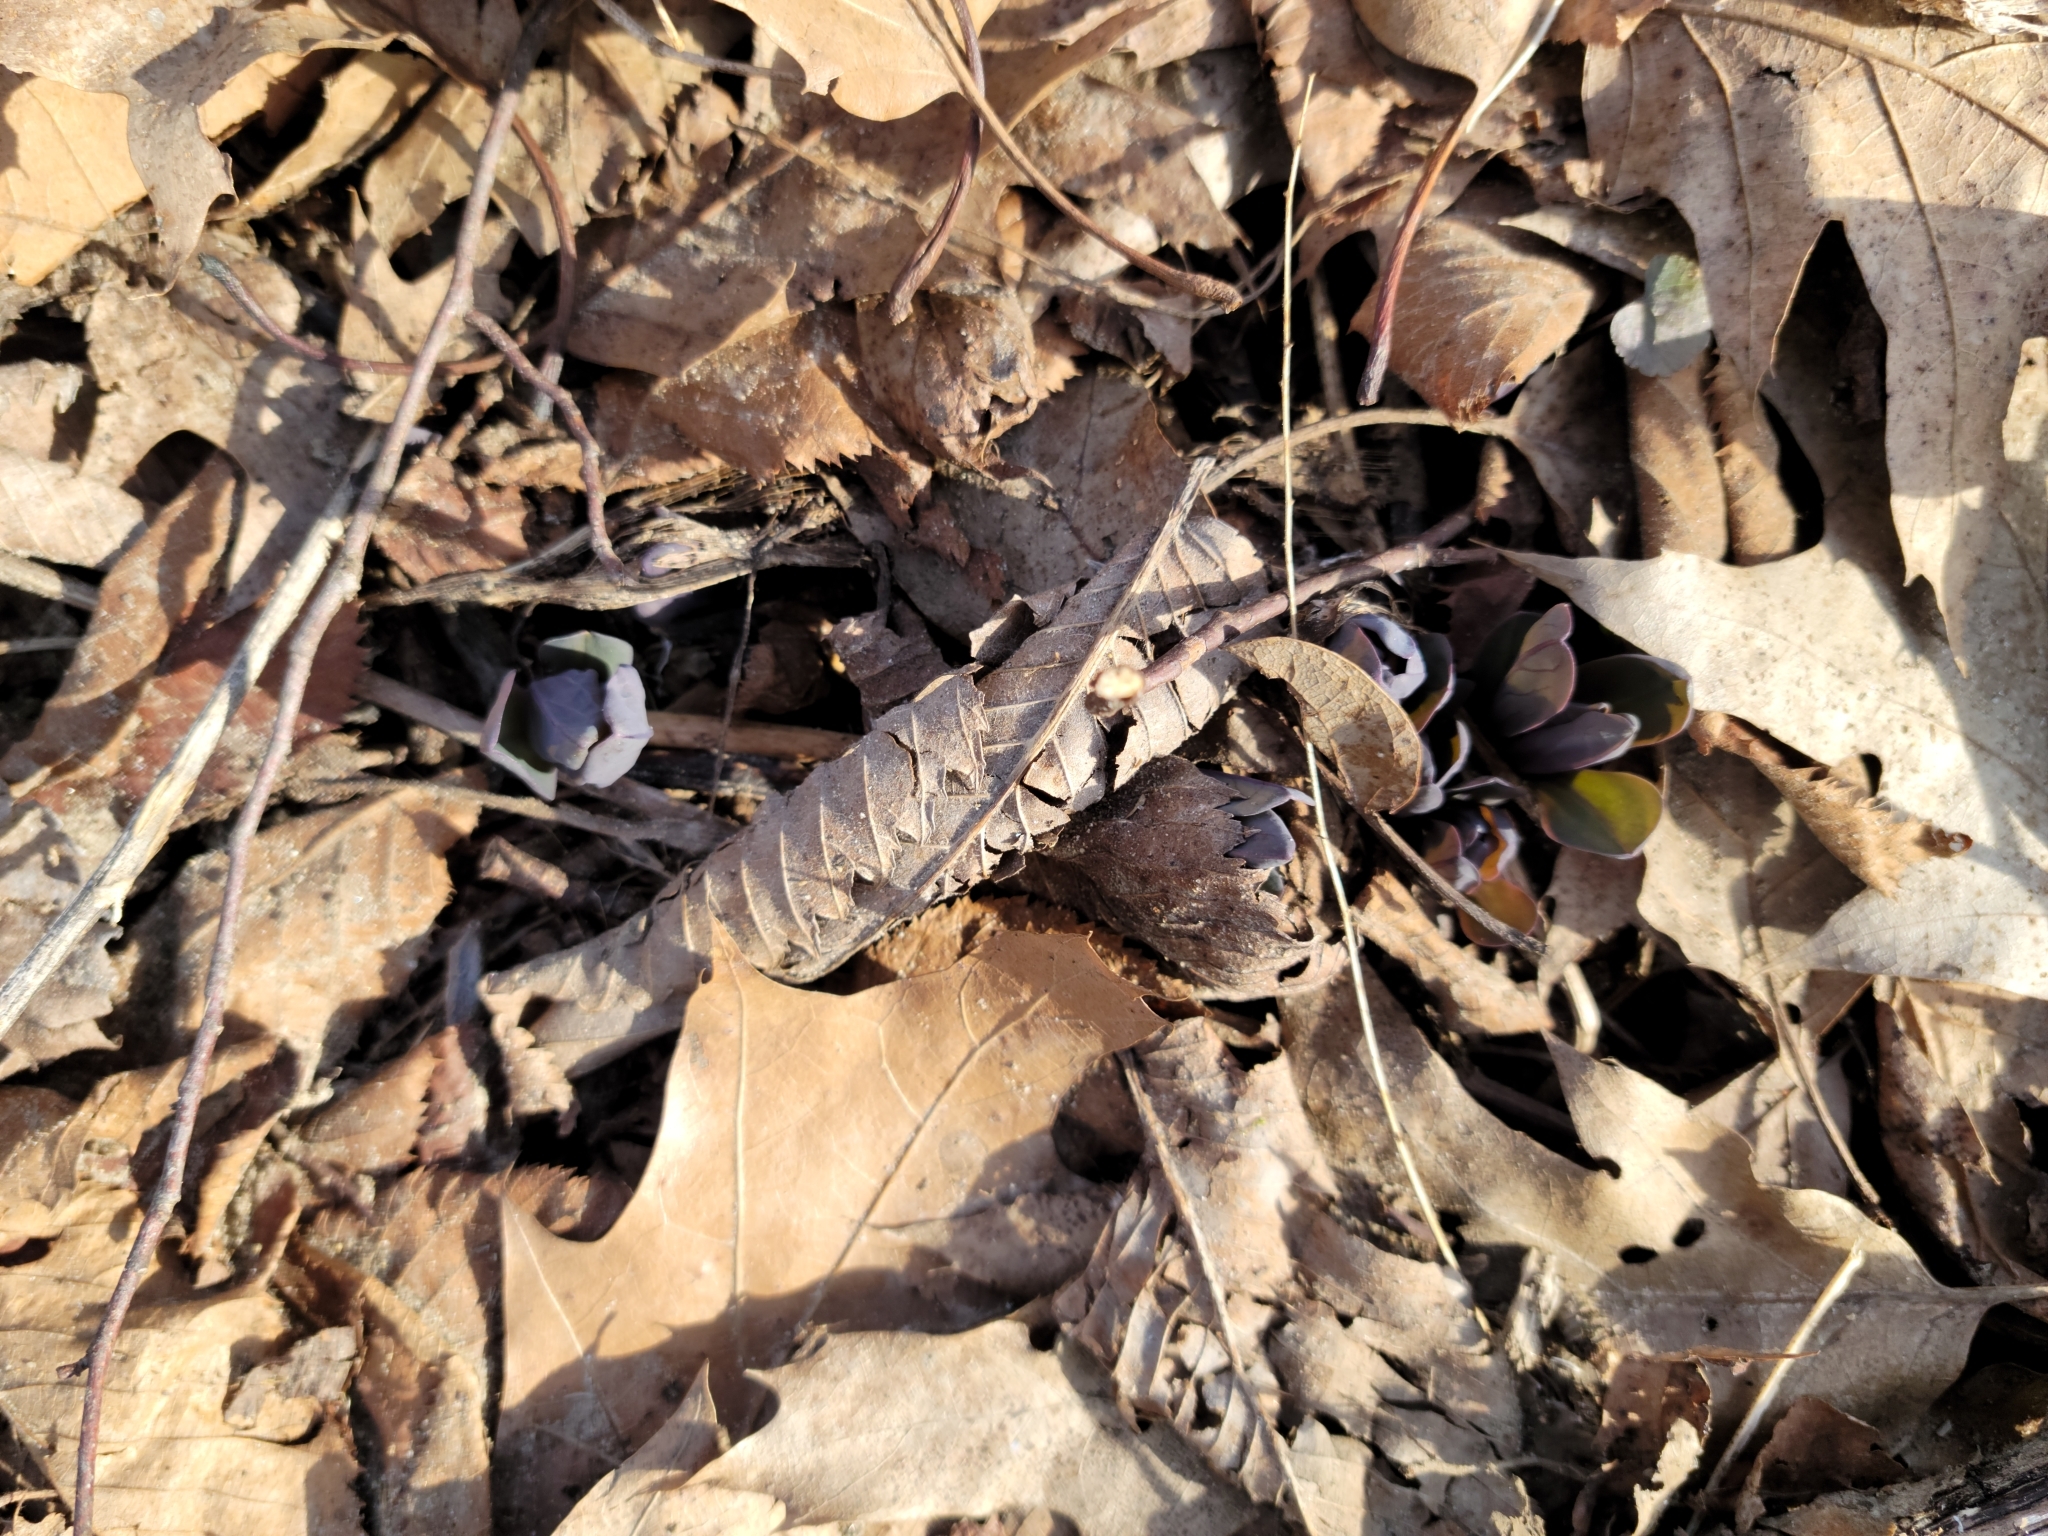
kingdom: Plantae
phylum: Tracheophyta
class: Magnoliopsida
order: Boraginales
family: Boraginaceae
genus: Mertensia
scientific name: Mertensia virginica
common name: Virginia bluebells
